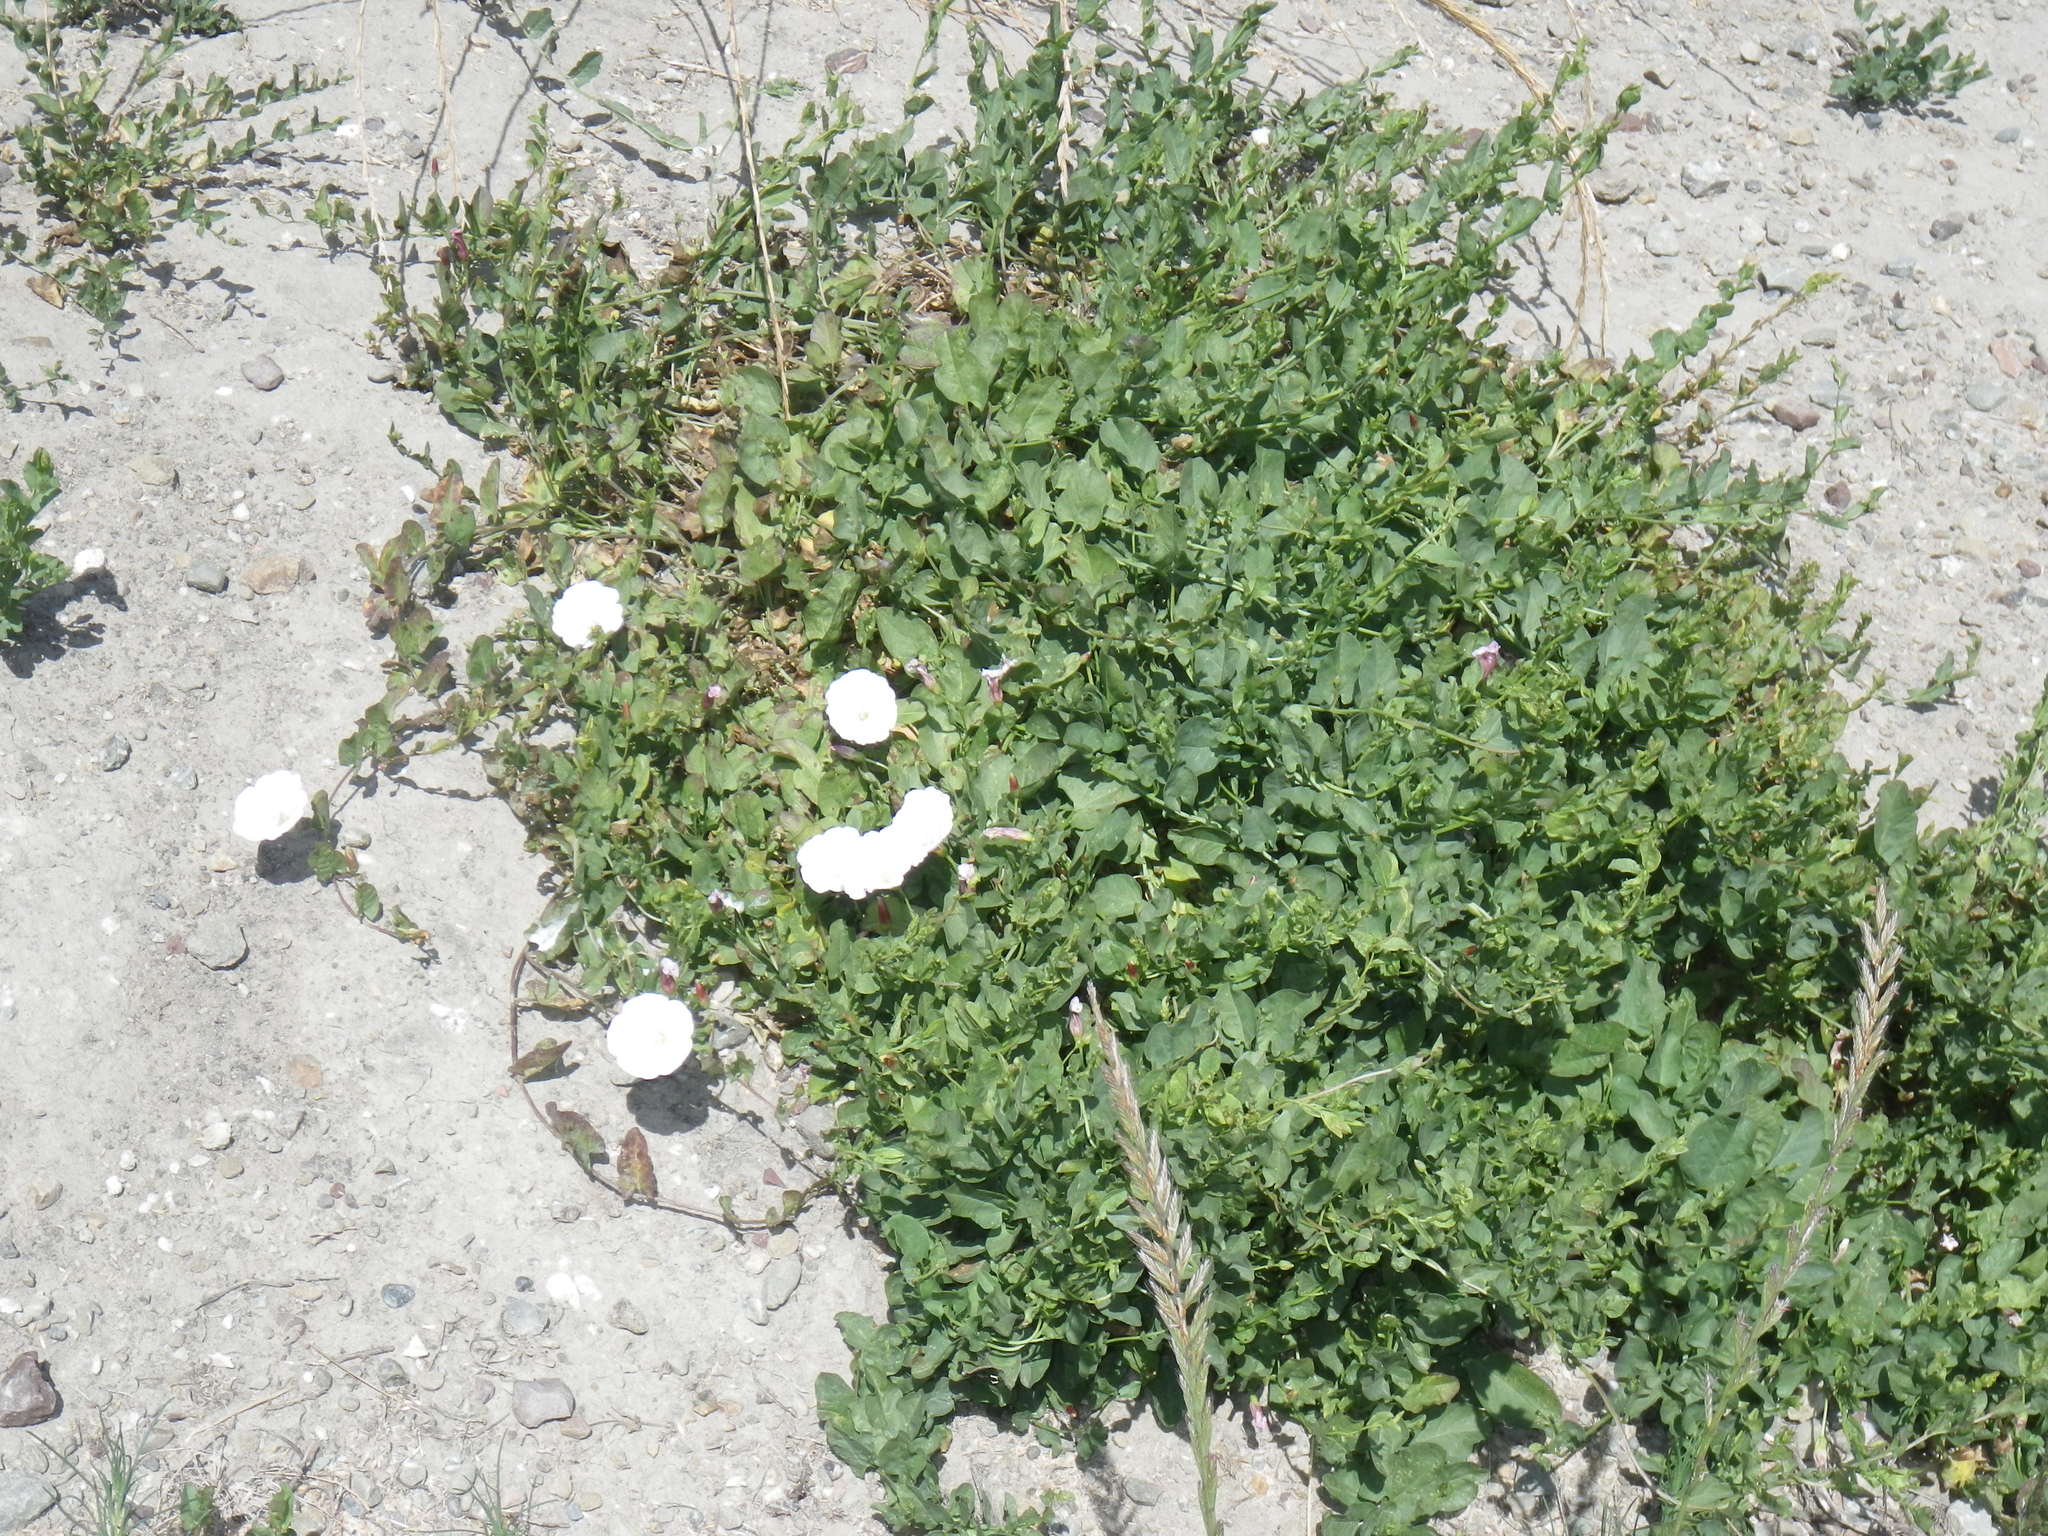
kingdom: Plantae
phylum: Tracheophyta
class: Magnoliopsida
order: Solanales
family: Convolvulaceae
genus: Convolvulus
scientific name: Convolvulus arvensis
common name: Field bindweed
